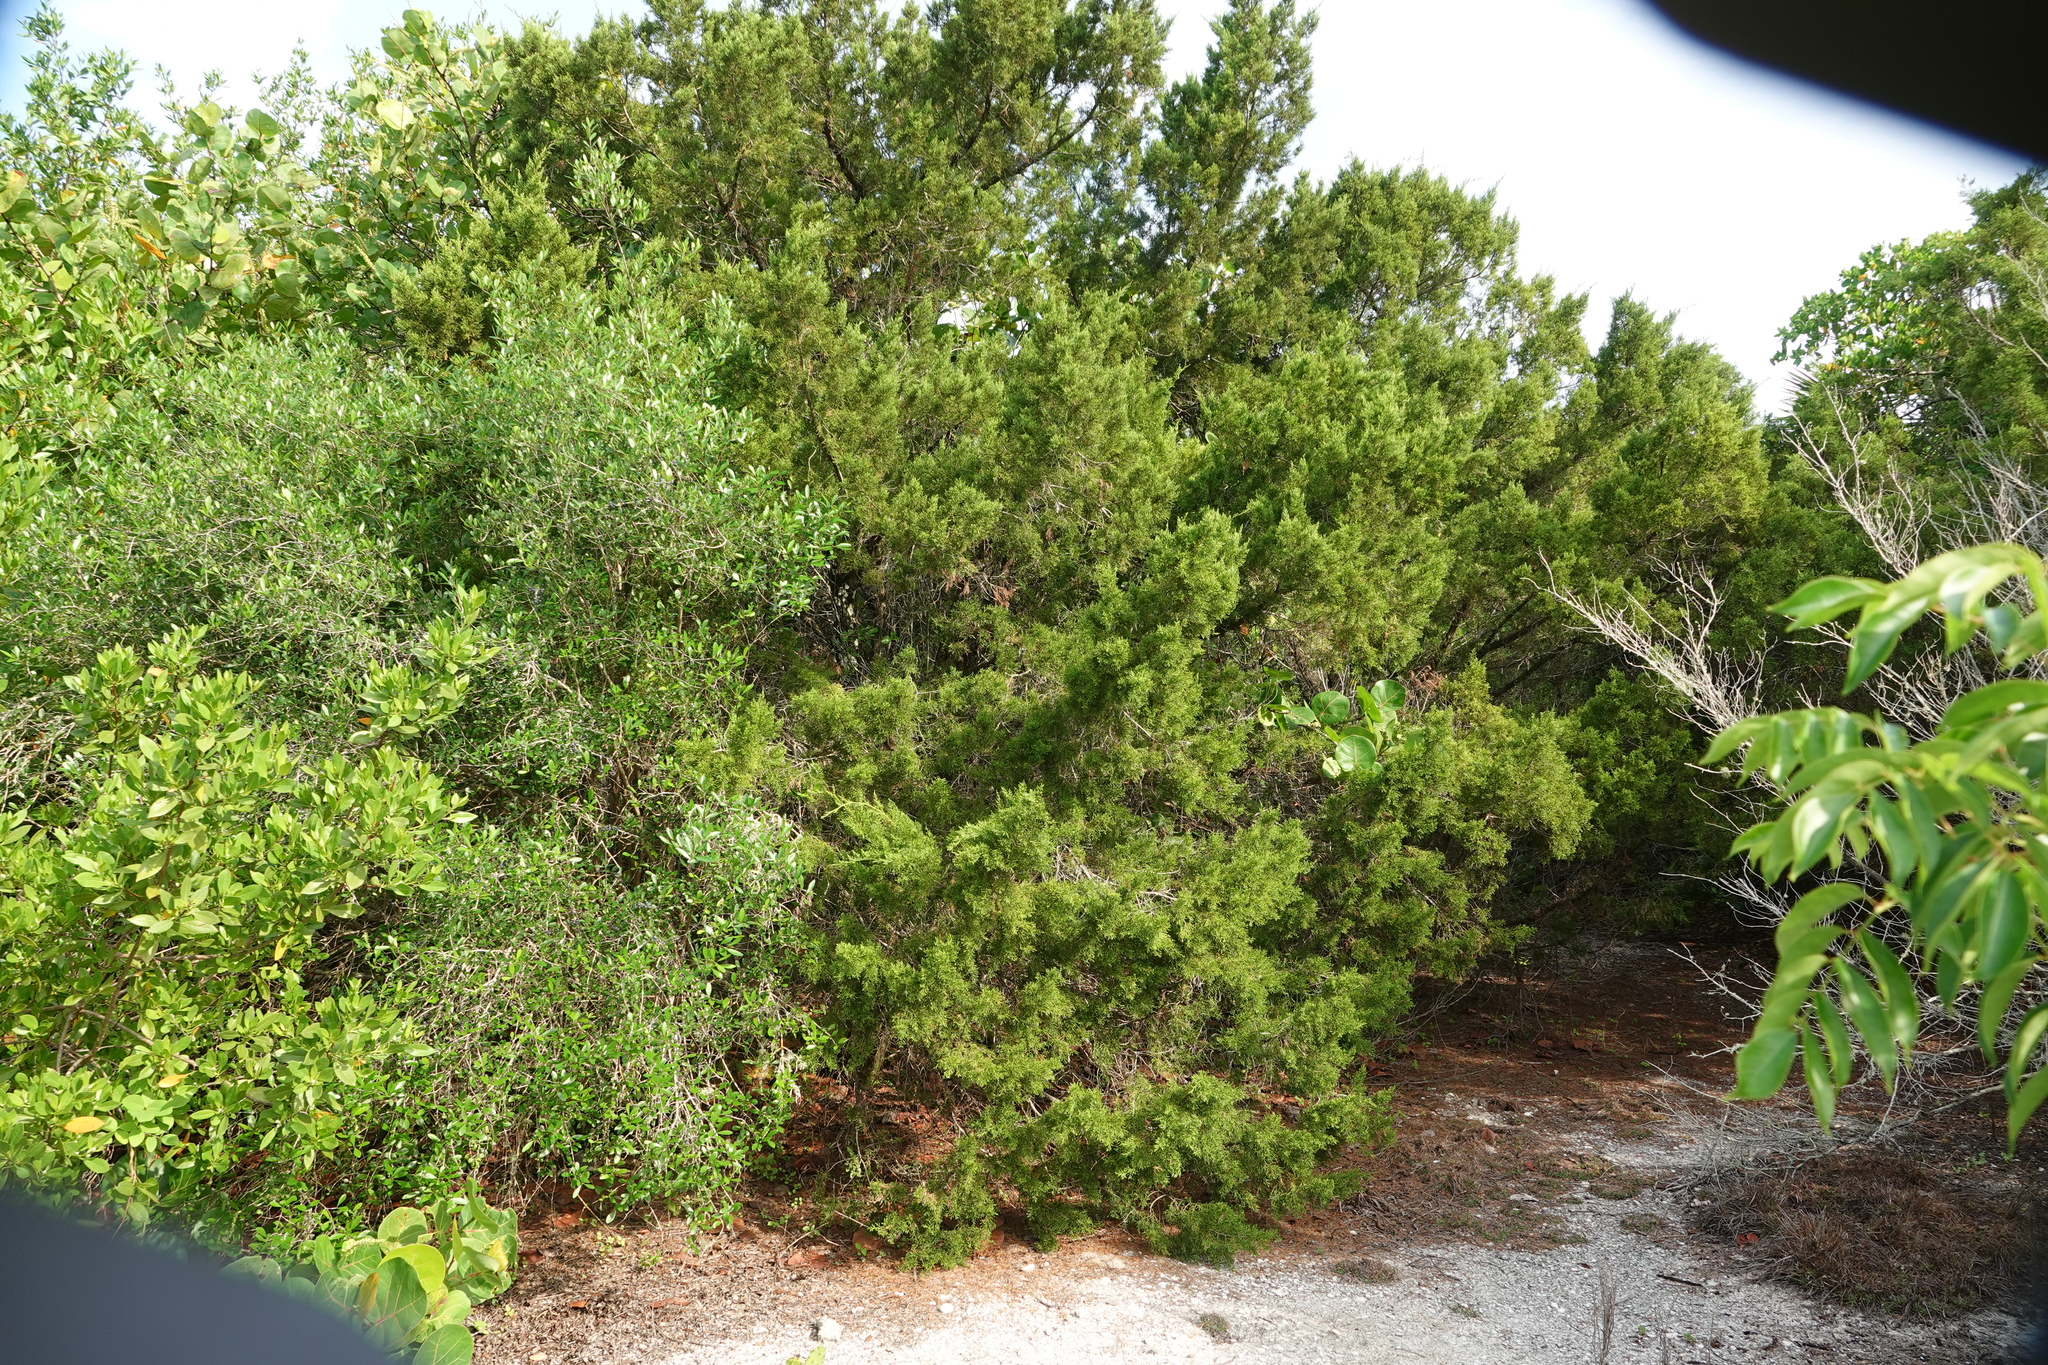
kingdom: Plantae
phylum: Tracheophyta
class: Pinopsida
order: Pinales
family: Cupressaceae
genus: Juniperus
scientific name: Juniperus virginiana
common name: Red juniper
